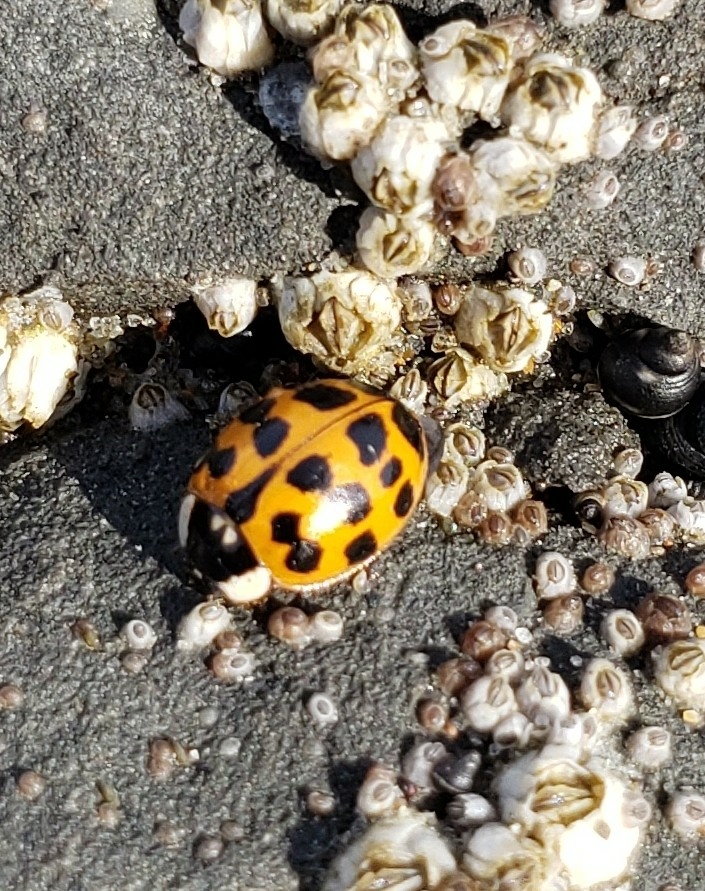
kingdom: Animalia
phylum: Arthropoda
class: Insecta
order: Coleoptera
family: Coccinellidae
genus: Harmonia
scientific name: Harmonia axyridis
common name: Harlequin ladybird
